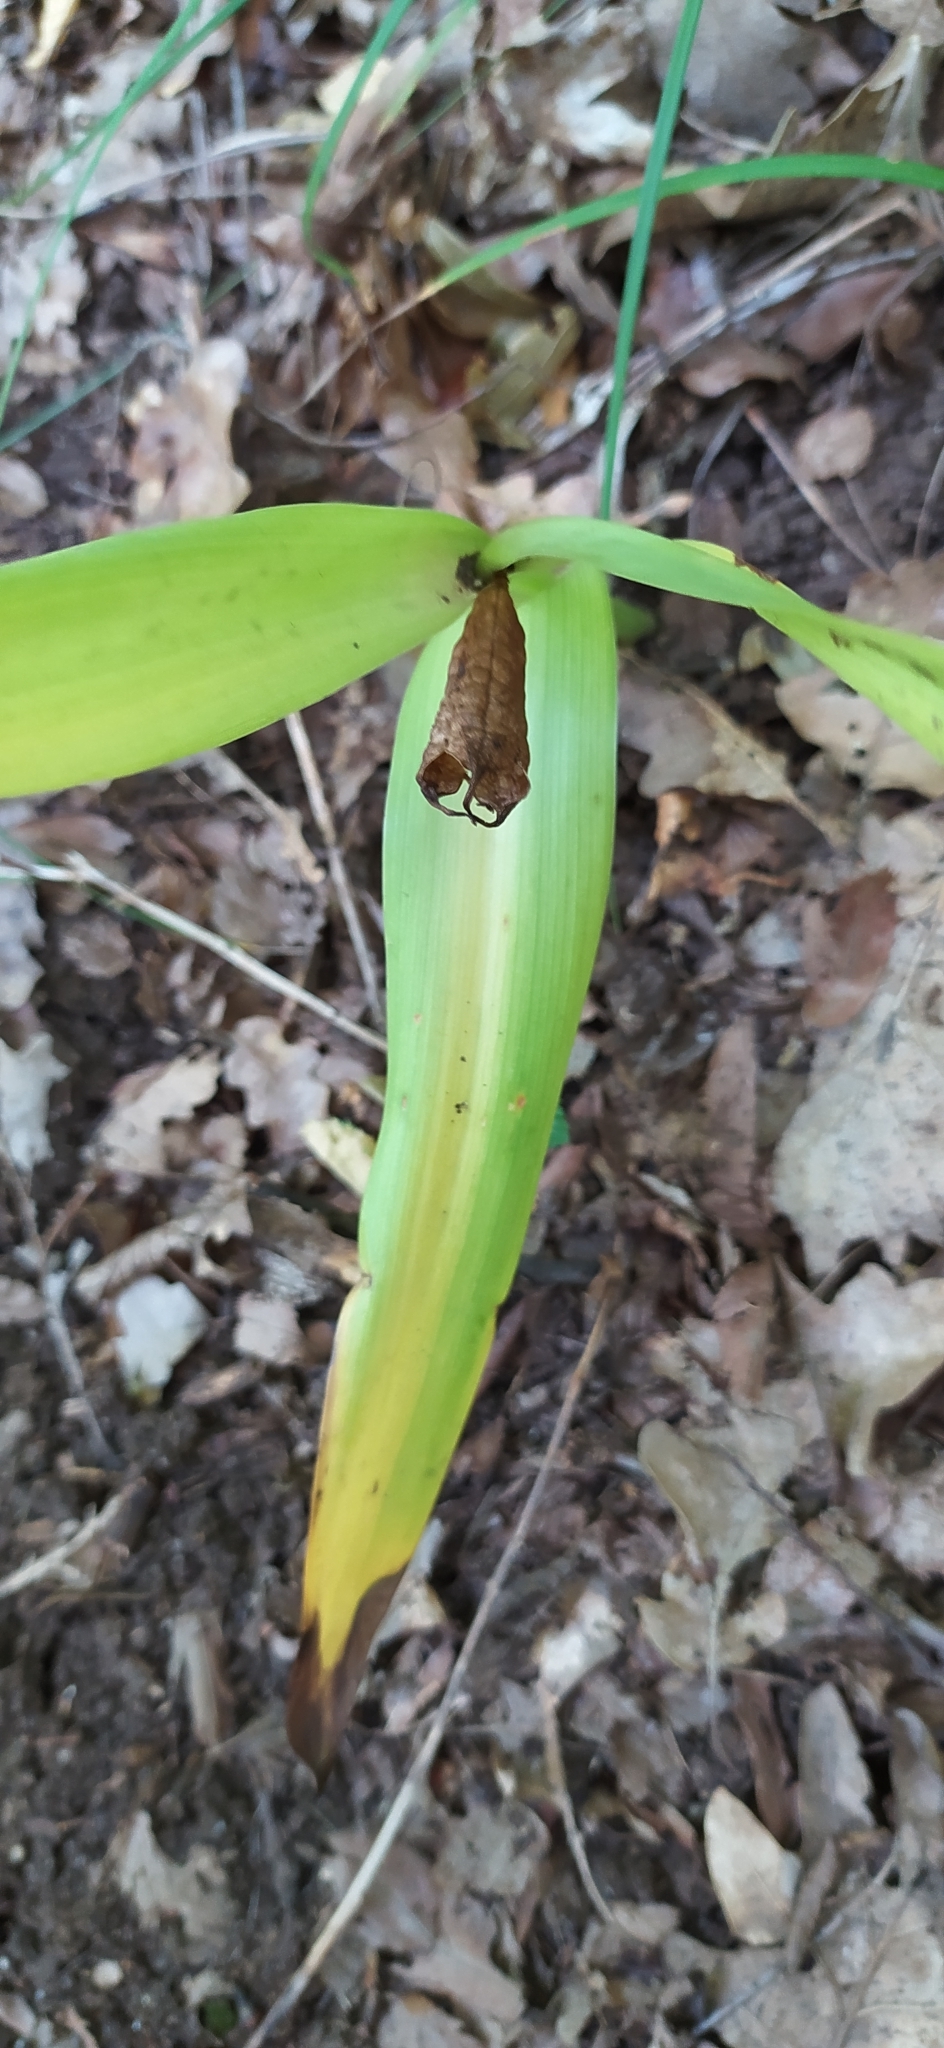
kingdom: Plantae
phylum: Tracheophyta
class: Liliopsida
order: Liliales
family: Colchicaceae
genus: Colchicum
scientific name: Colchicum umbrosum
